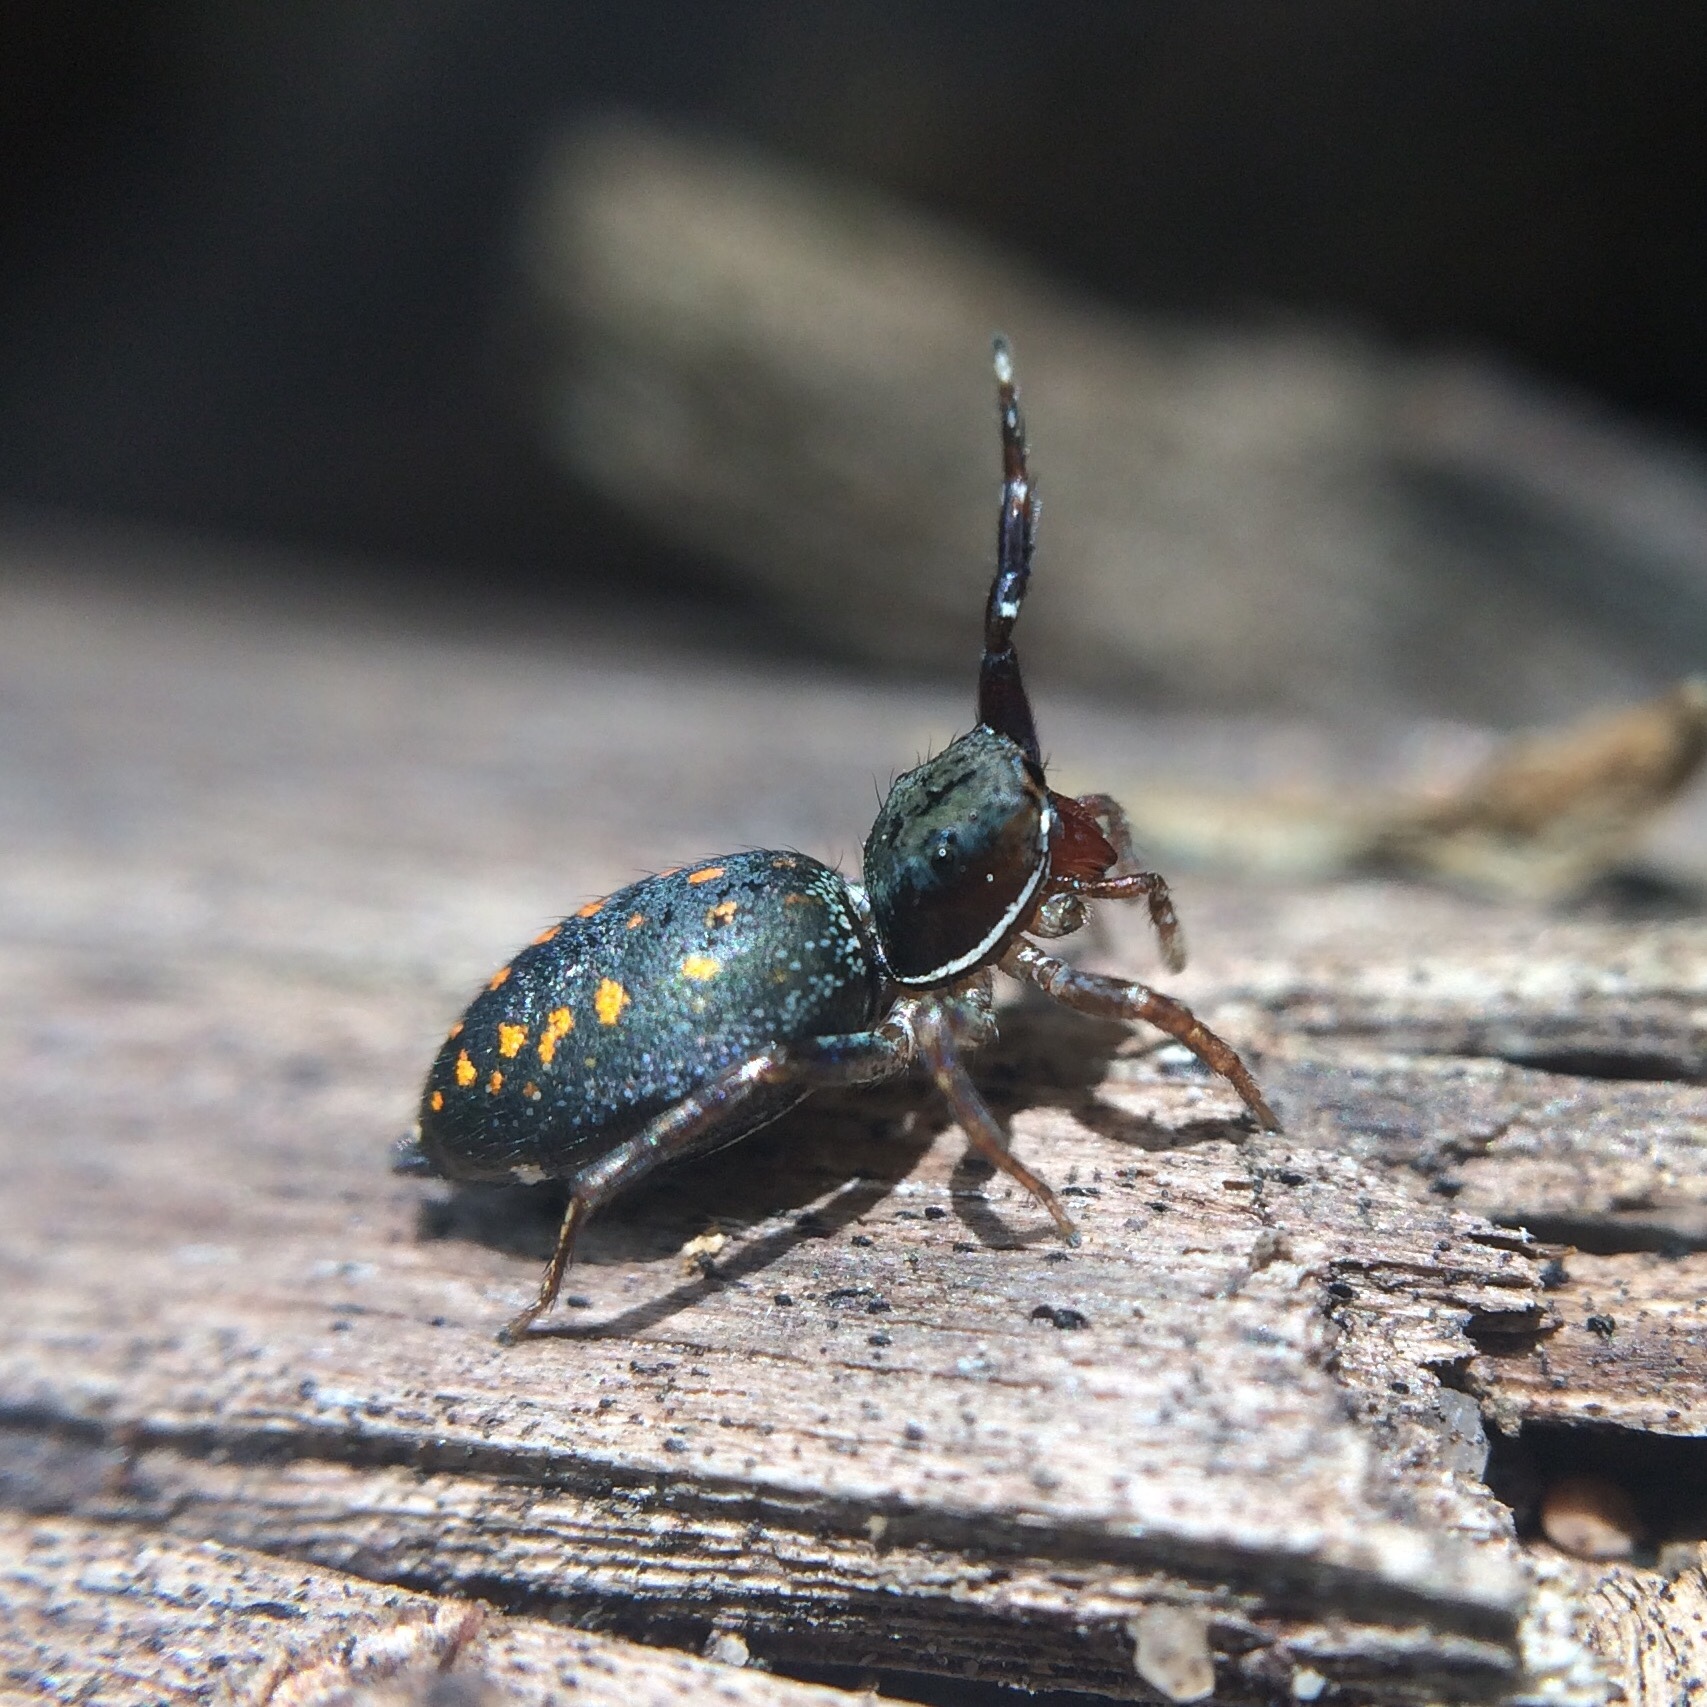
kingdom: Animalia
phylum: Arthropoda
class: Arachnida
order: Araneae
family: Salticidae
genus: Natta
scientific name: Natta horizontalis
